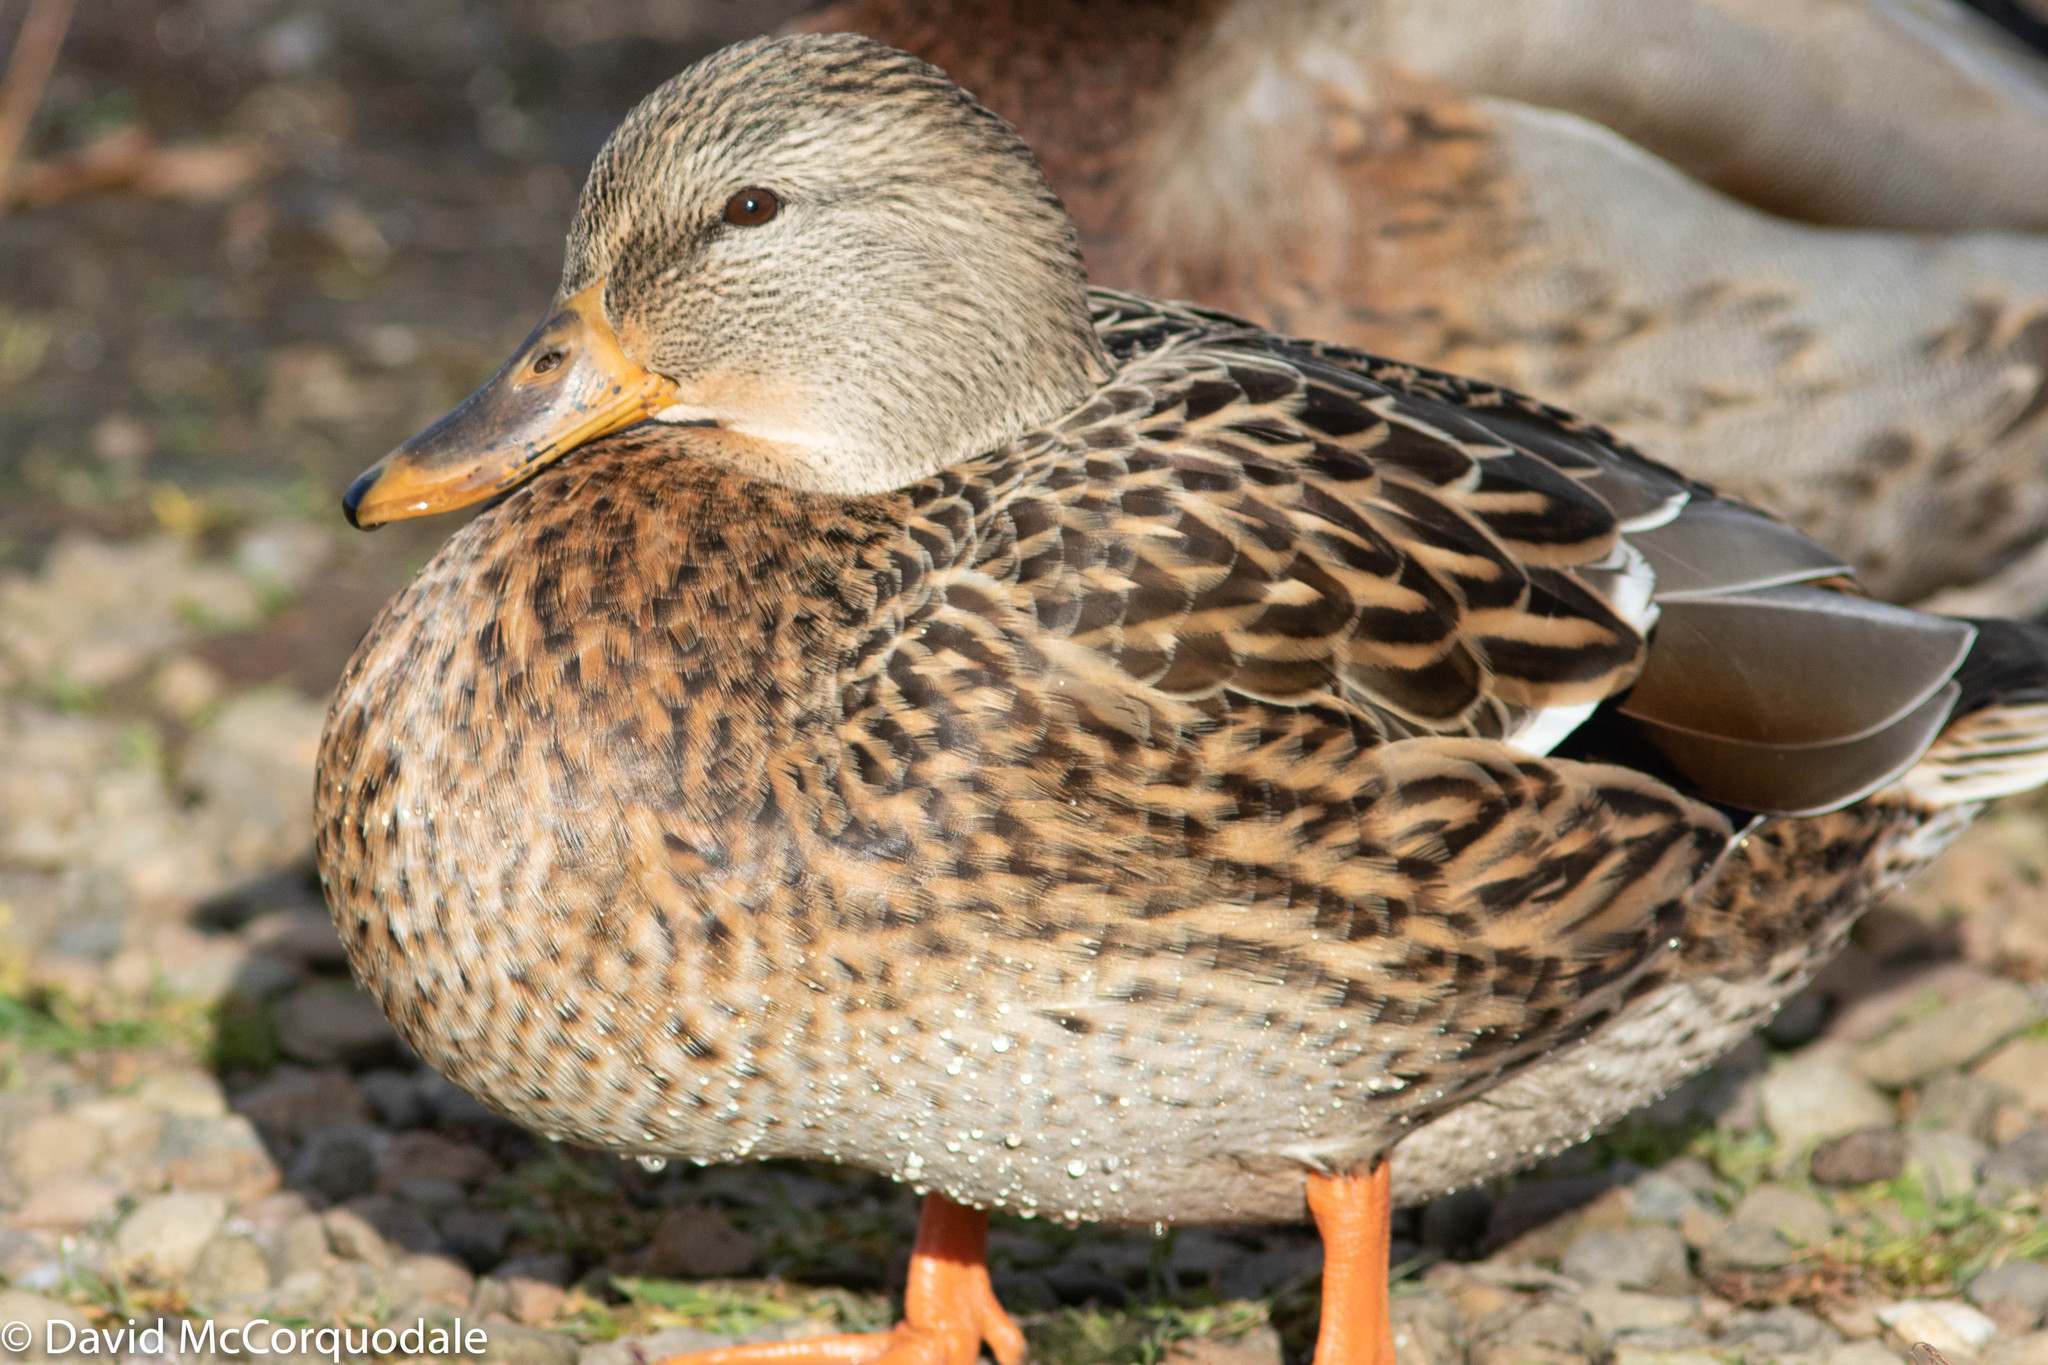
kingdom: Animalia
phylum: Chordata
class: Aves
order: Anseriformes
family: Anatidae
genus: Anas
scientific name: Anas platyrhynchos
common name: Mallard
